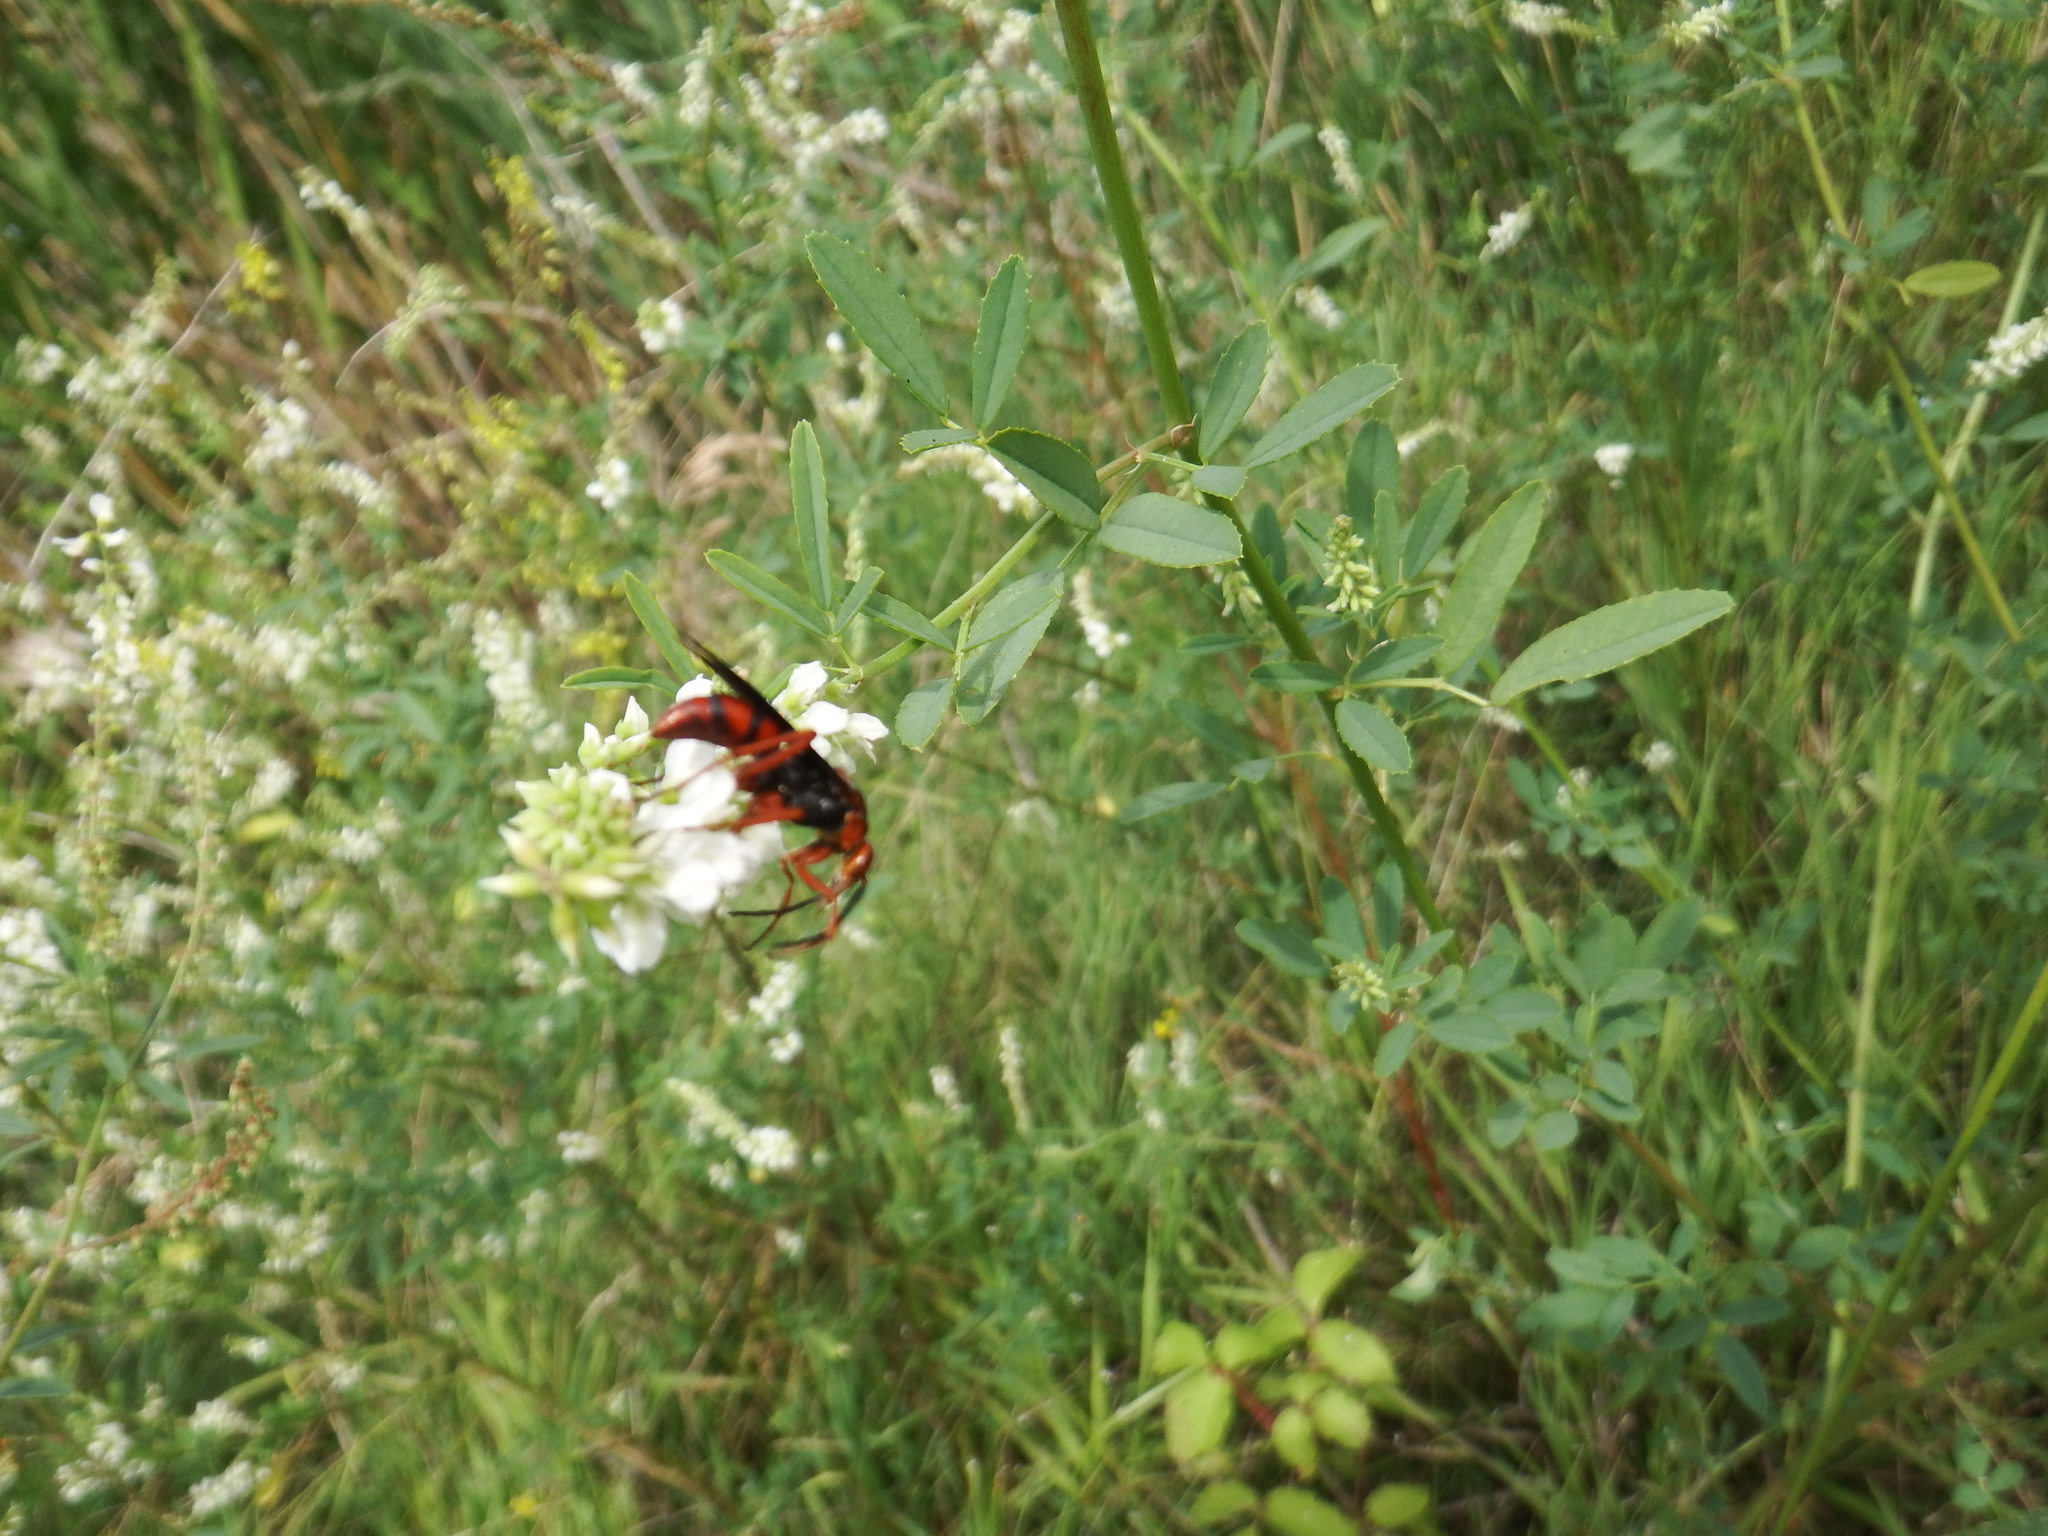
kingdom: Animalia
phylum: Arthropoda
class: Insecta
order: Hymenoptera
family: Pompilidae
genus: Tachypompilus
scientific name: Tachypompilus ferrugineus
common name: Rusty spider wasp
